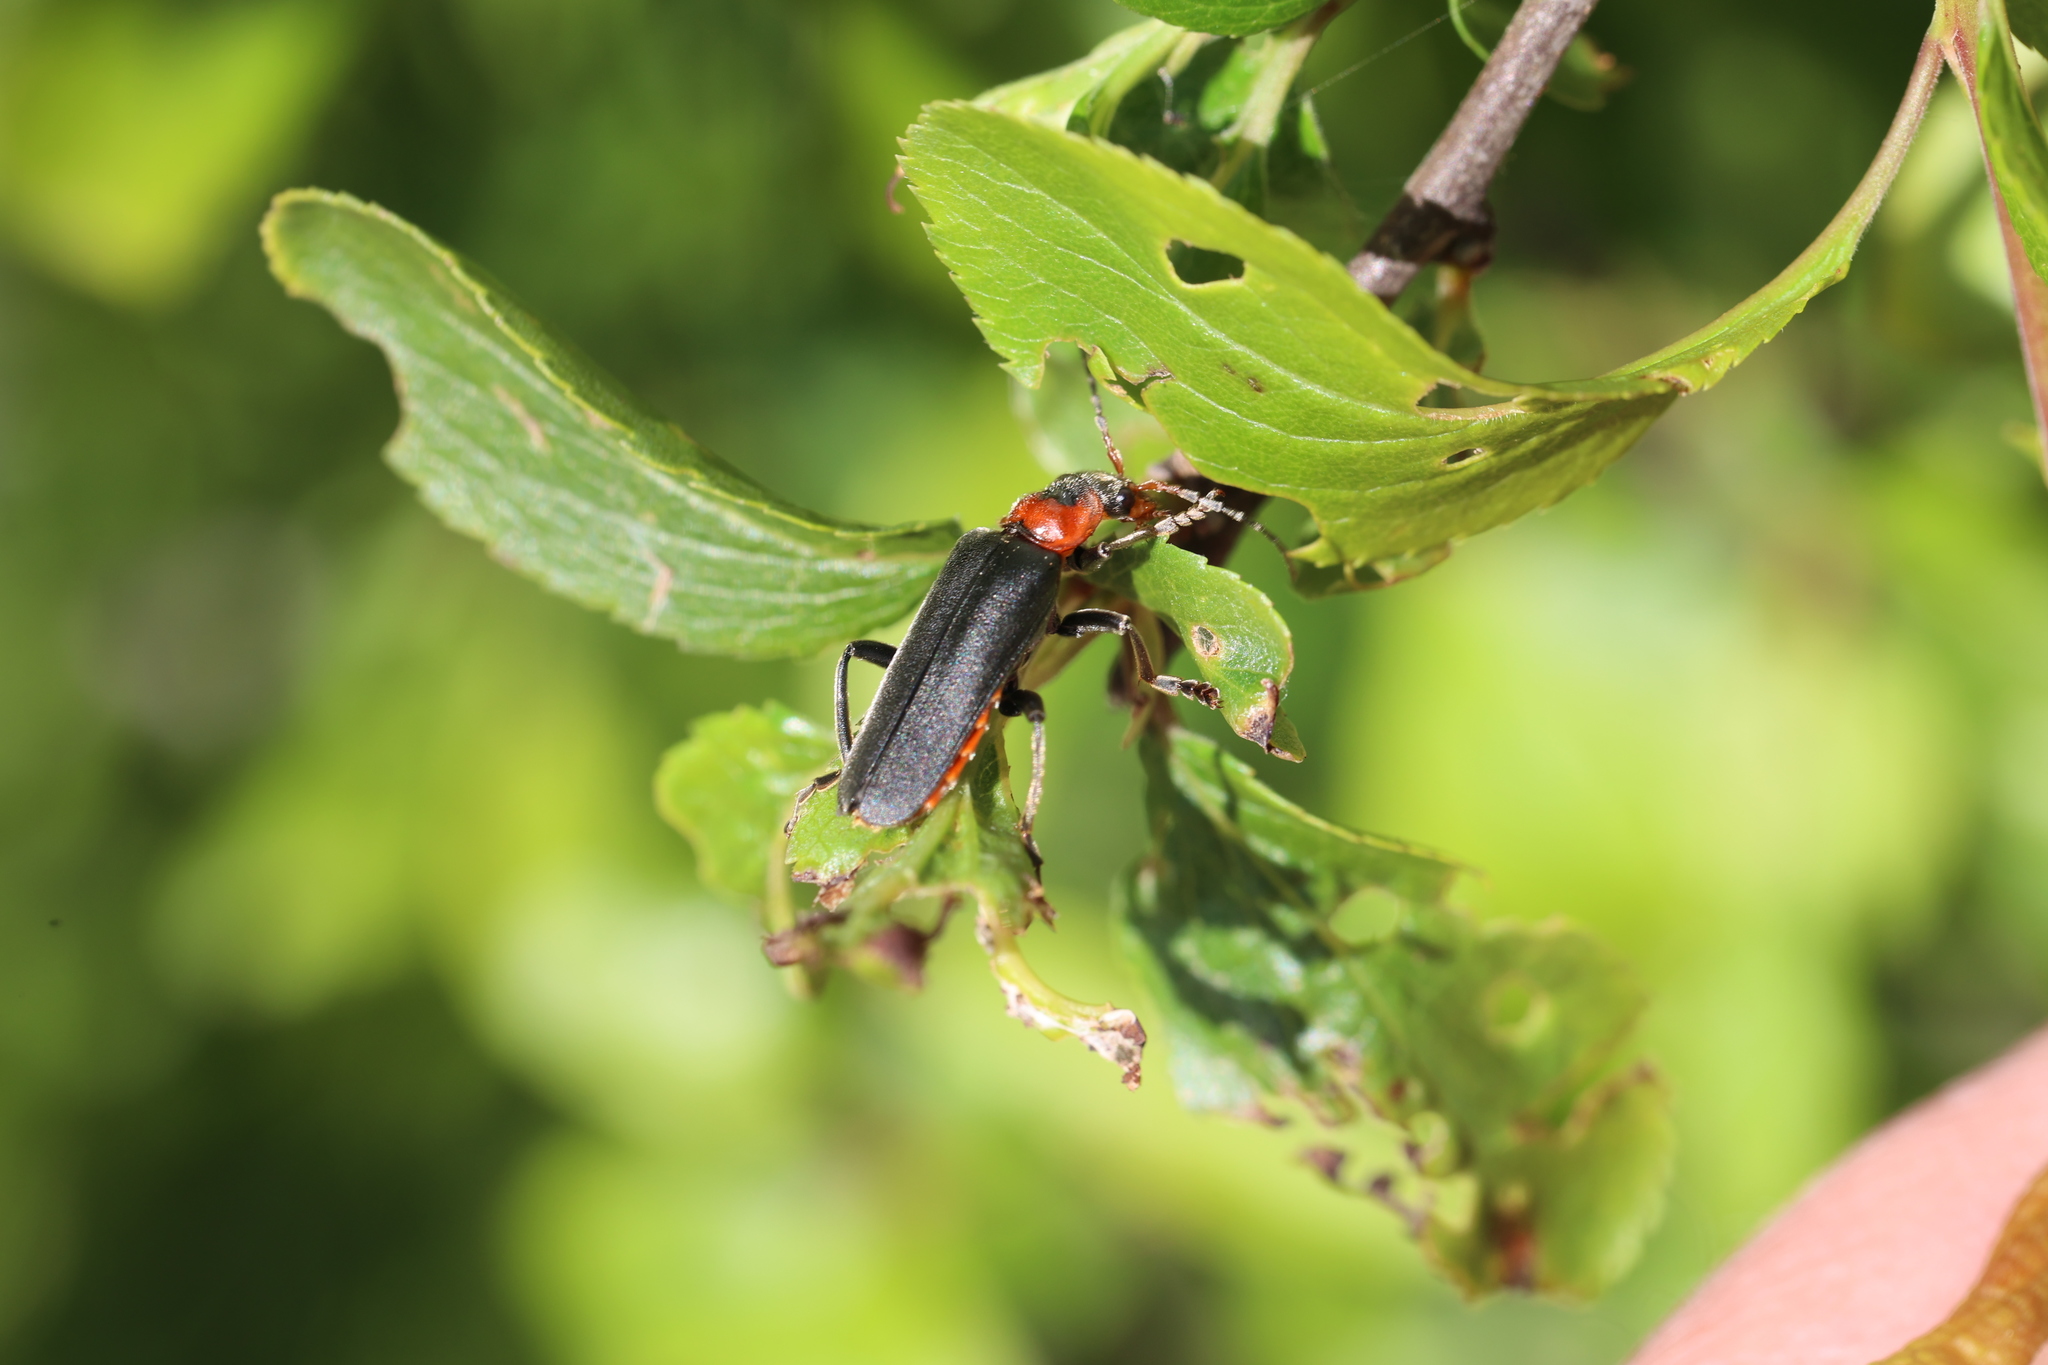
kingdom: Animalia
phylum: Arthropoda
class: Insecta
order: Coleoptera
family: Cantharidae
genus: Cantharis
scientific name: Cantharis fusca
